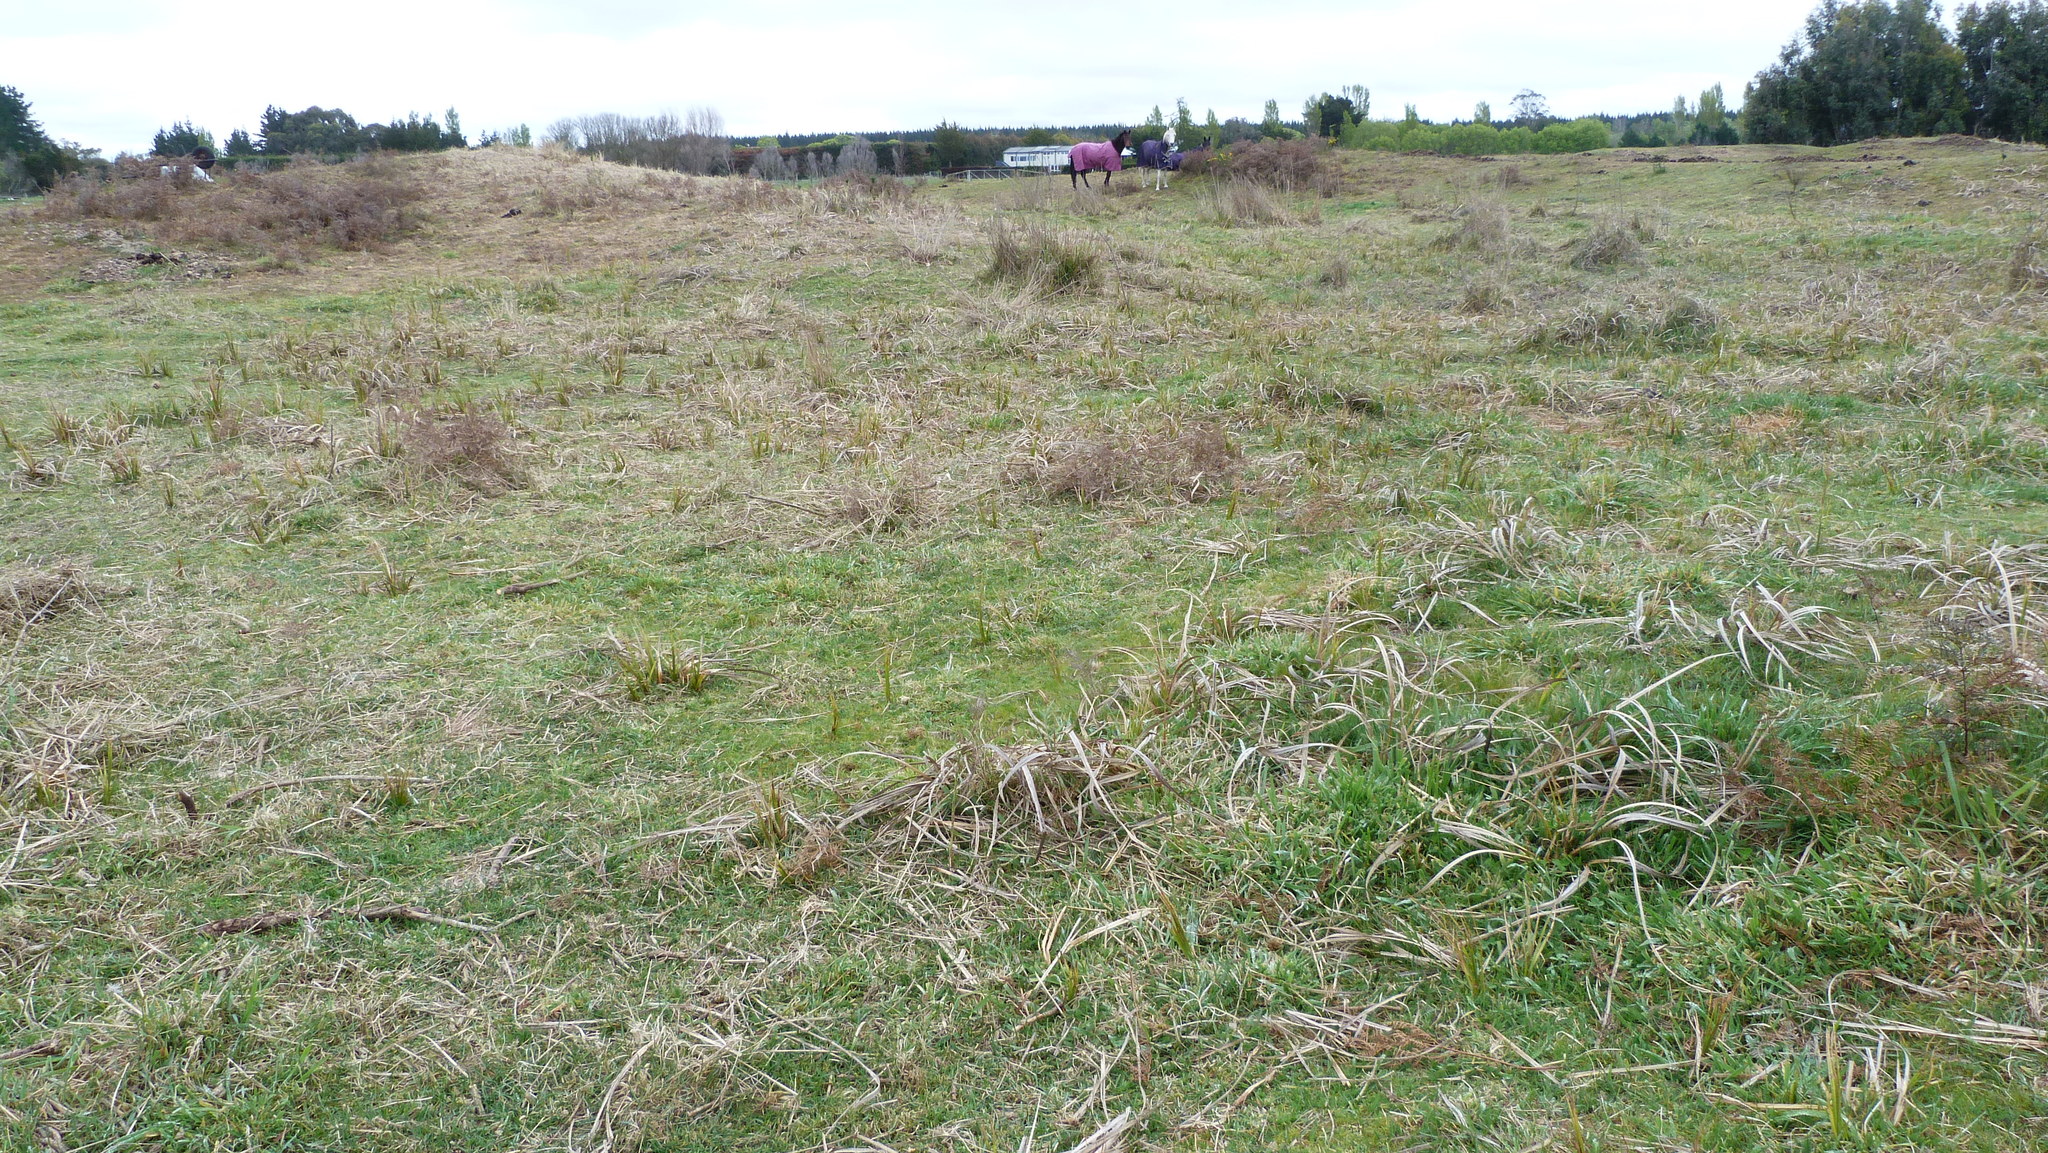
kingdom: Plantae
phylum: Tracheophyta
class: Liliopsida
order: Poales
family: Cyperaceae
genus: Carex
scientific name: Carex coriacea
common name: Rautahi
